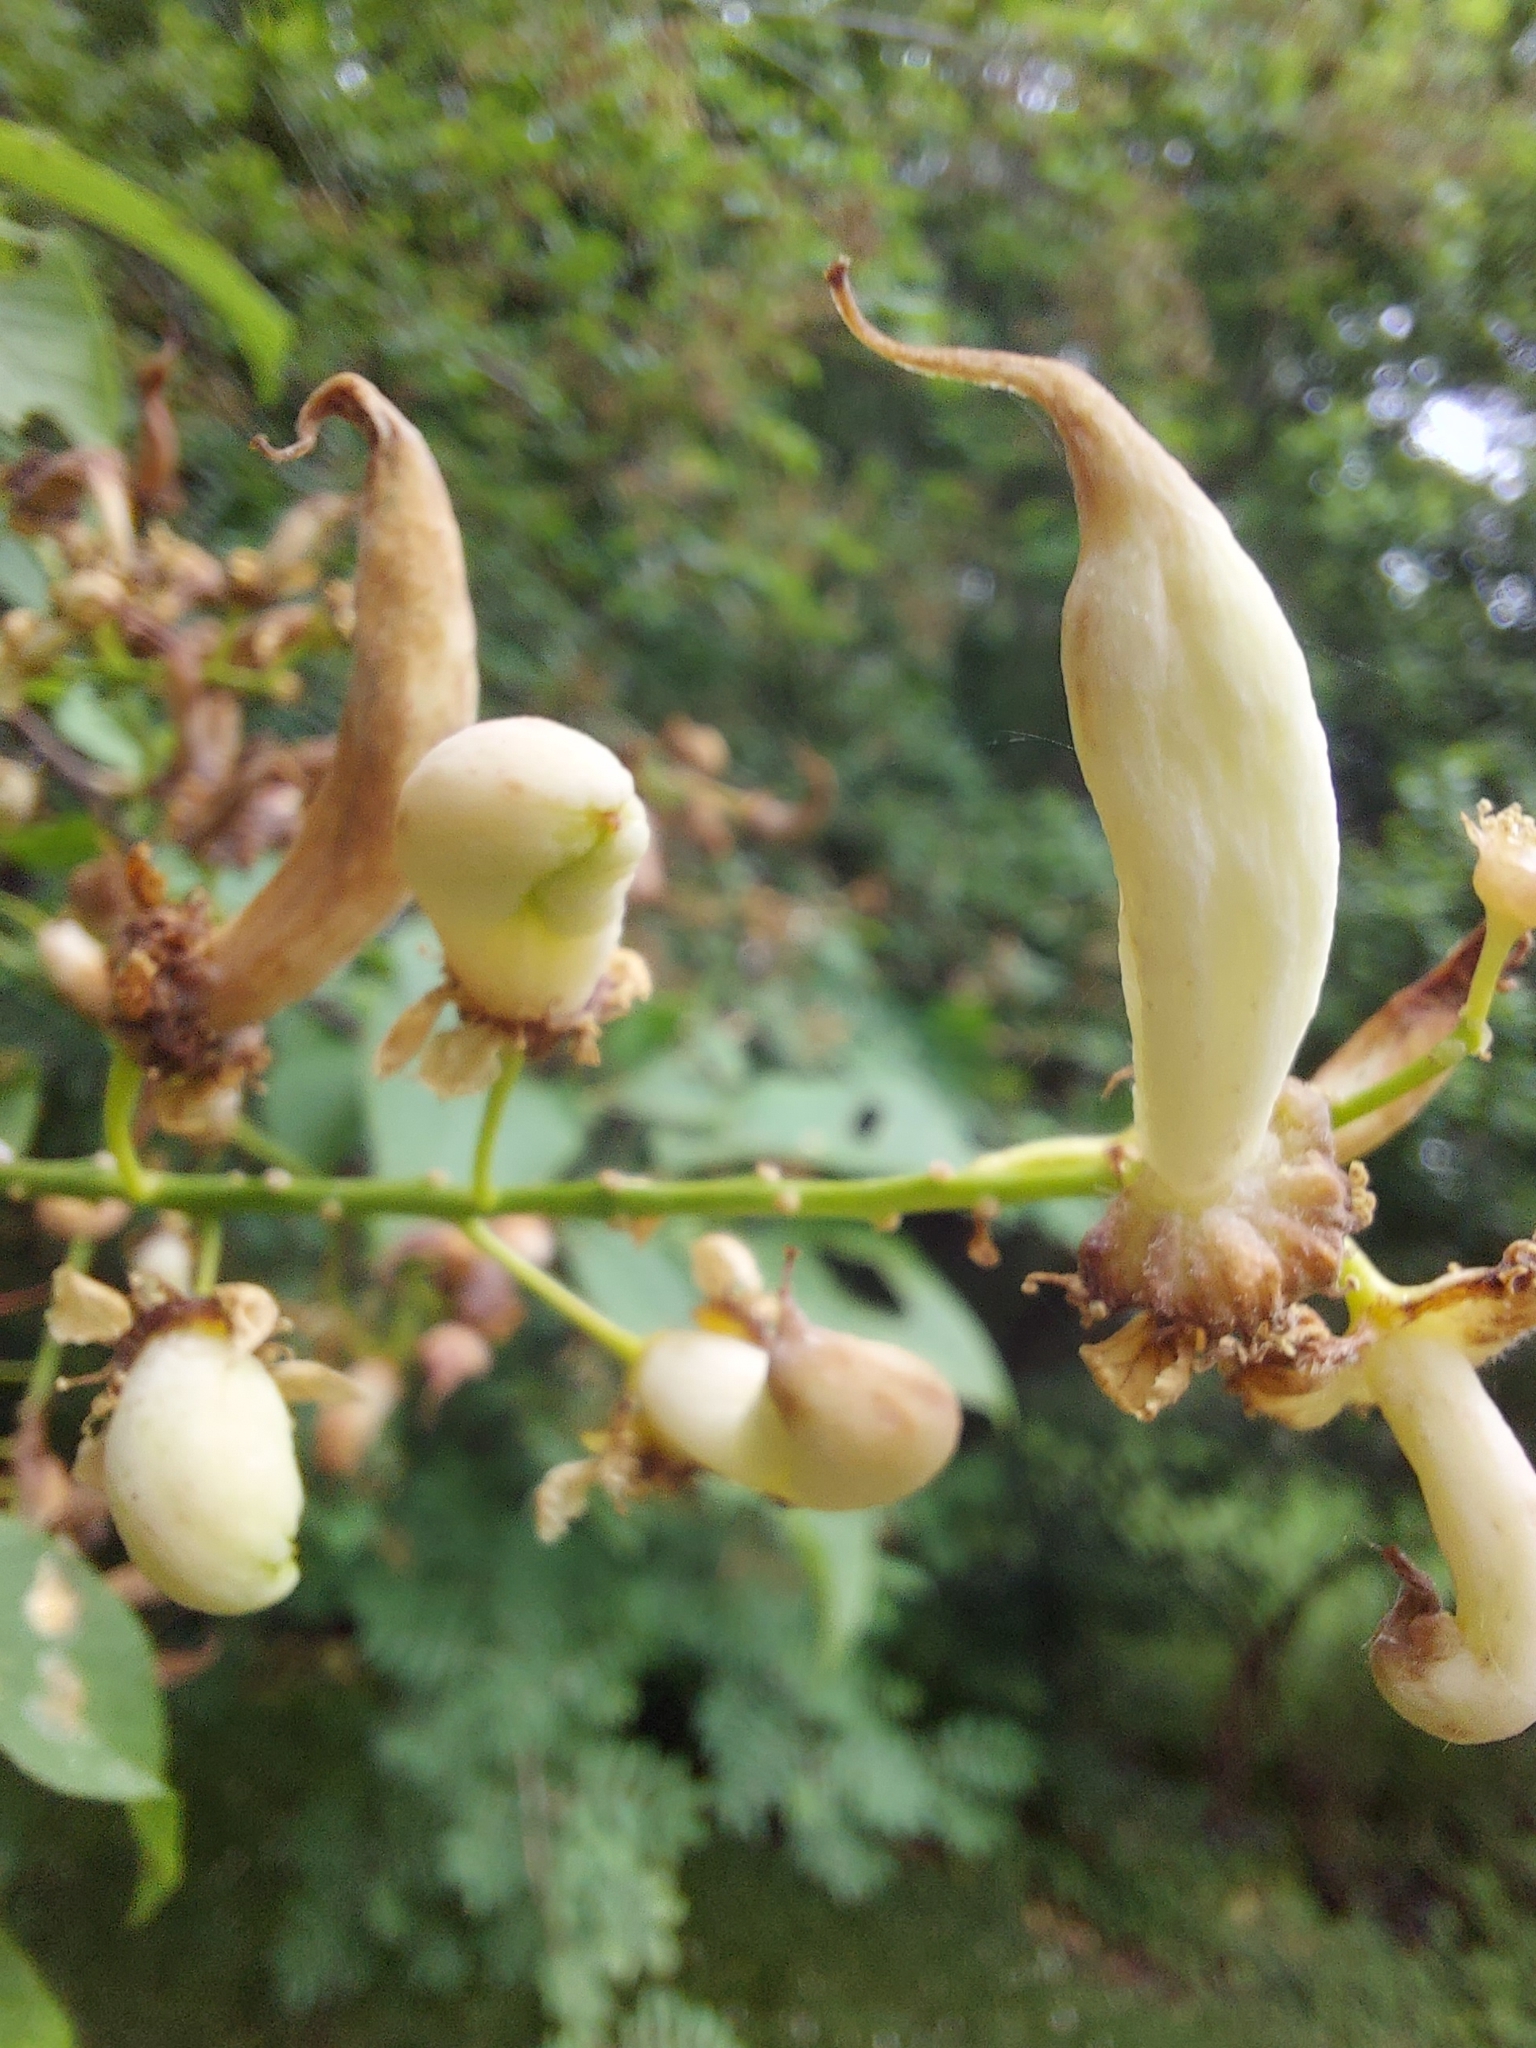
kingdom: Fungi
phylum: Ascomycota
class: Taphrinomycetes
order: Taphrinales
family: Taphrinaceae
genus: Taphrina
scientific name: Taphrina padi
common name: Bird cherry pocket
